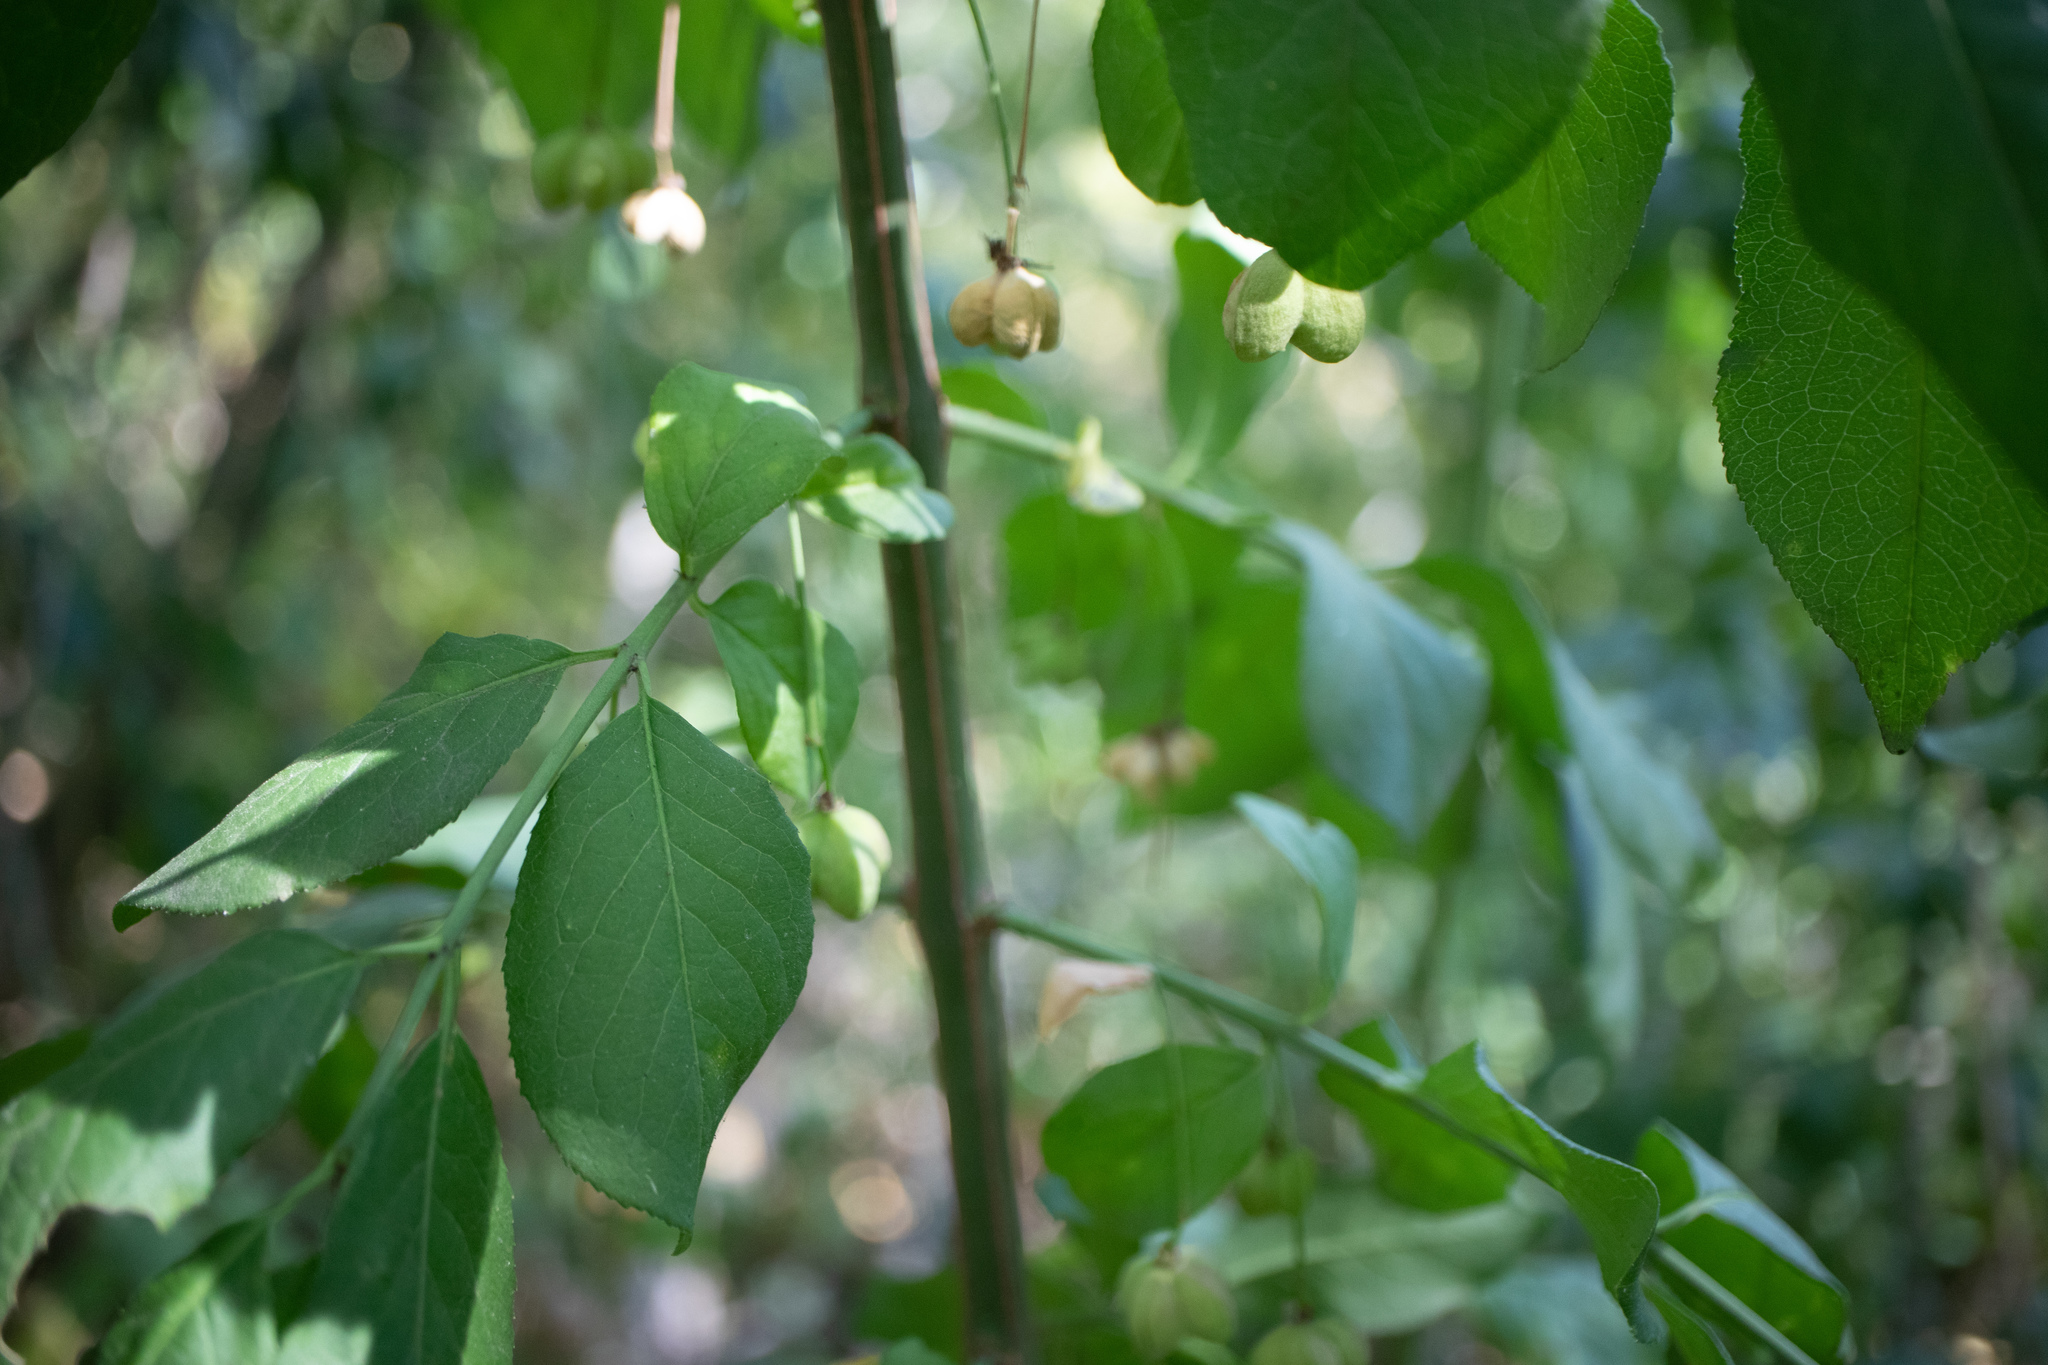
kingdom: Plantae
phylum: Tracheophyta
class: Magnoliopsida
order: Celastrales
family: Celastraceae
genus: Euonymus
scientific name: Euonymus europaeus
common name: Spindle
